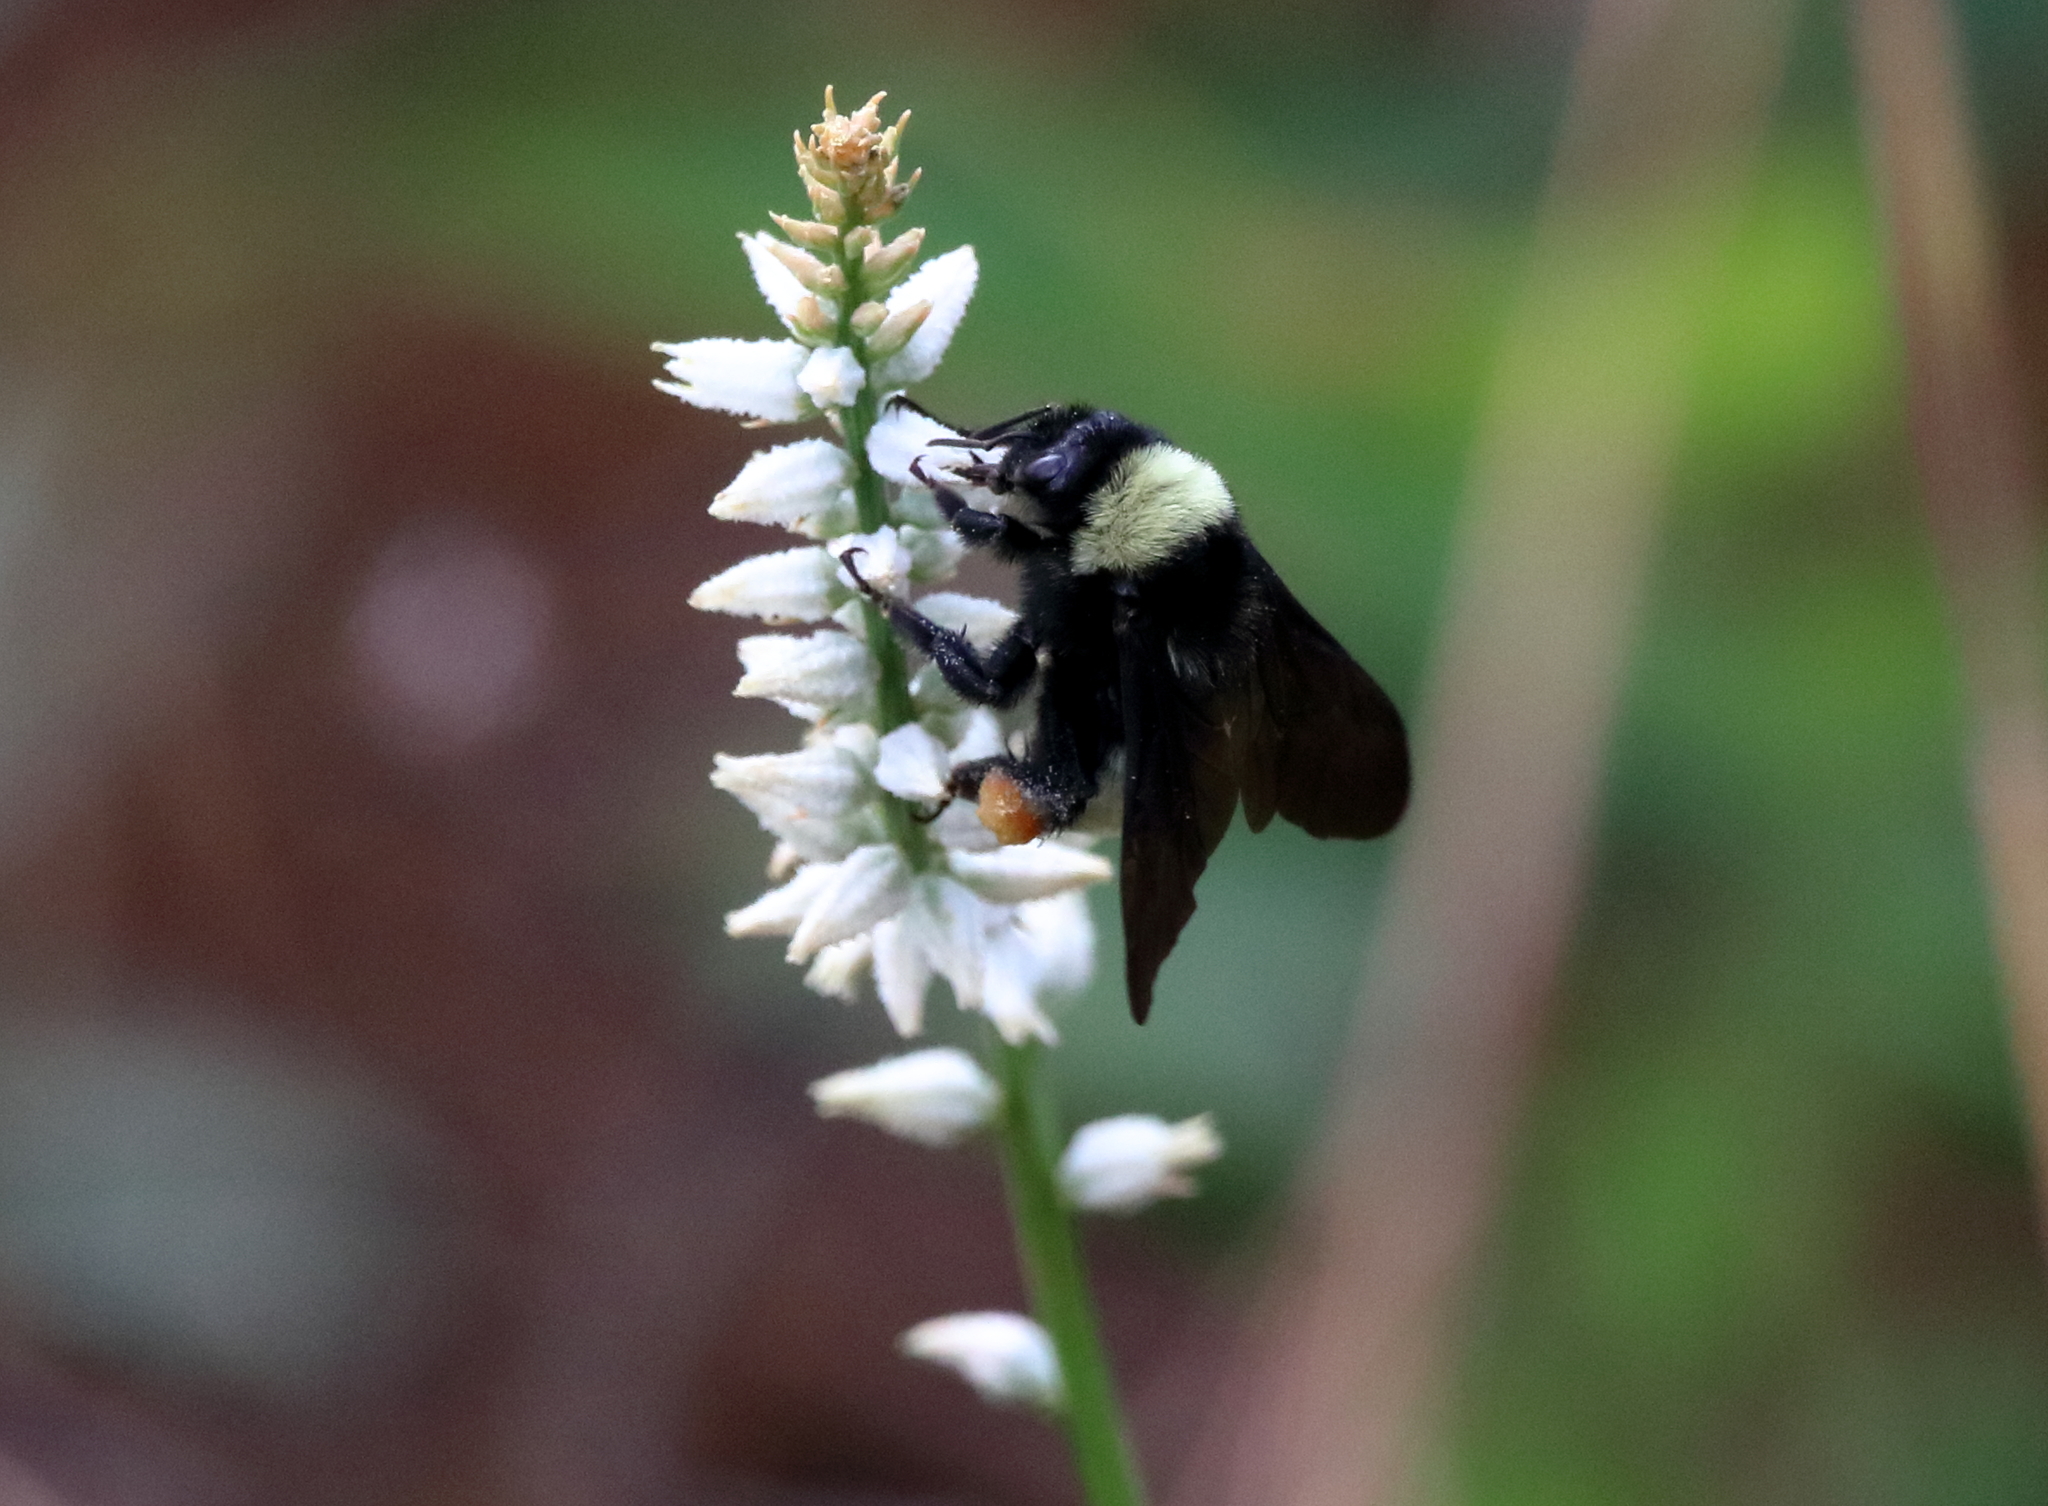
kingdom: Animalia
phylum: Arthropoda
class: Insecta
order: Hymenoptera
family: Apidae
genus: Bombus
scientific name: Bombus pensylvanicus
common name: Bumble bee
